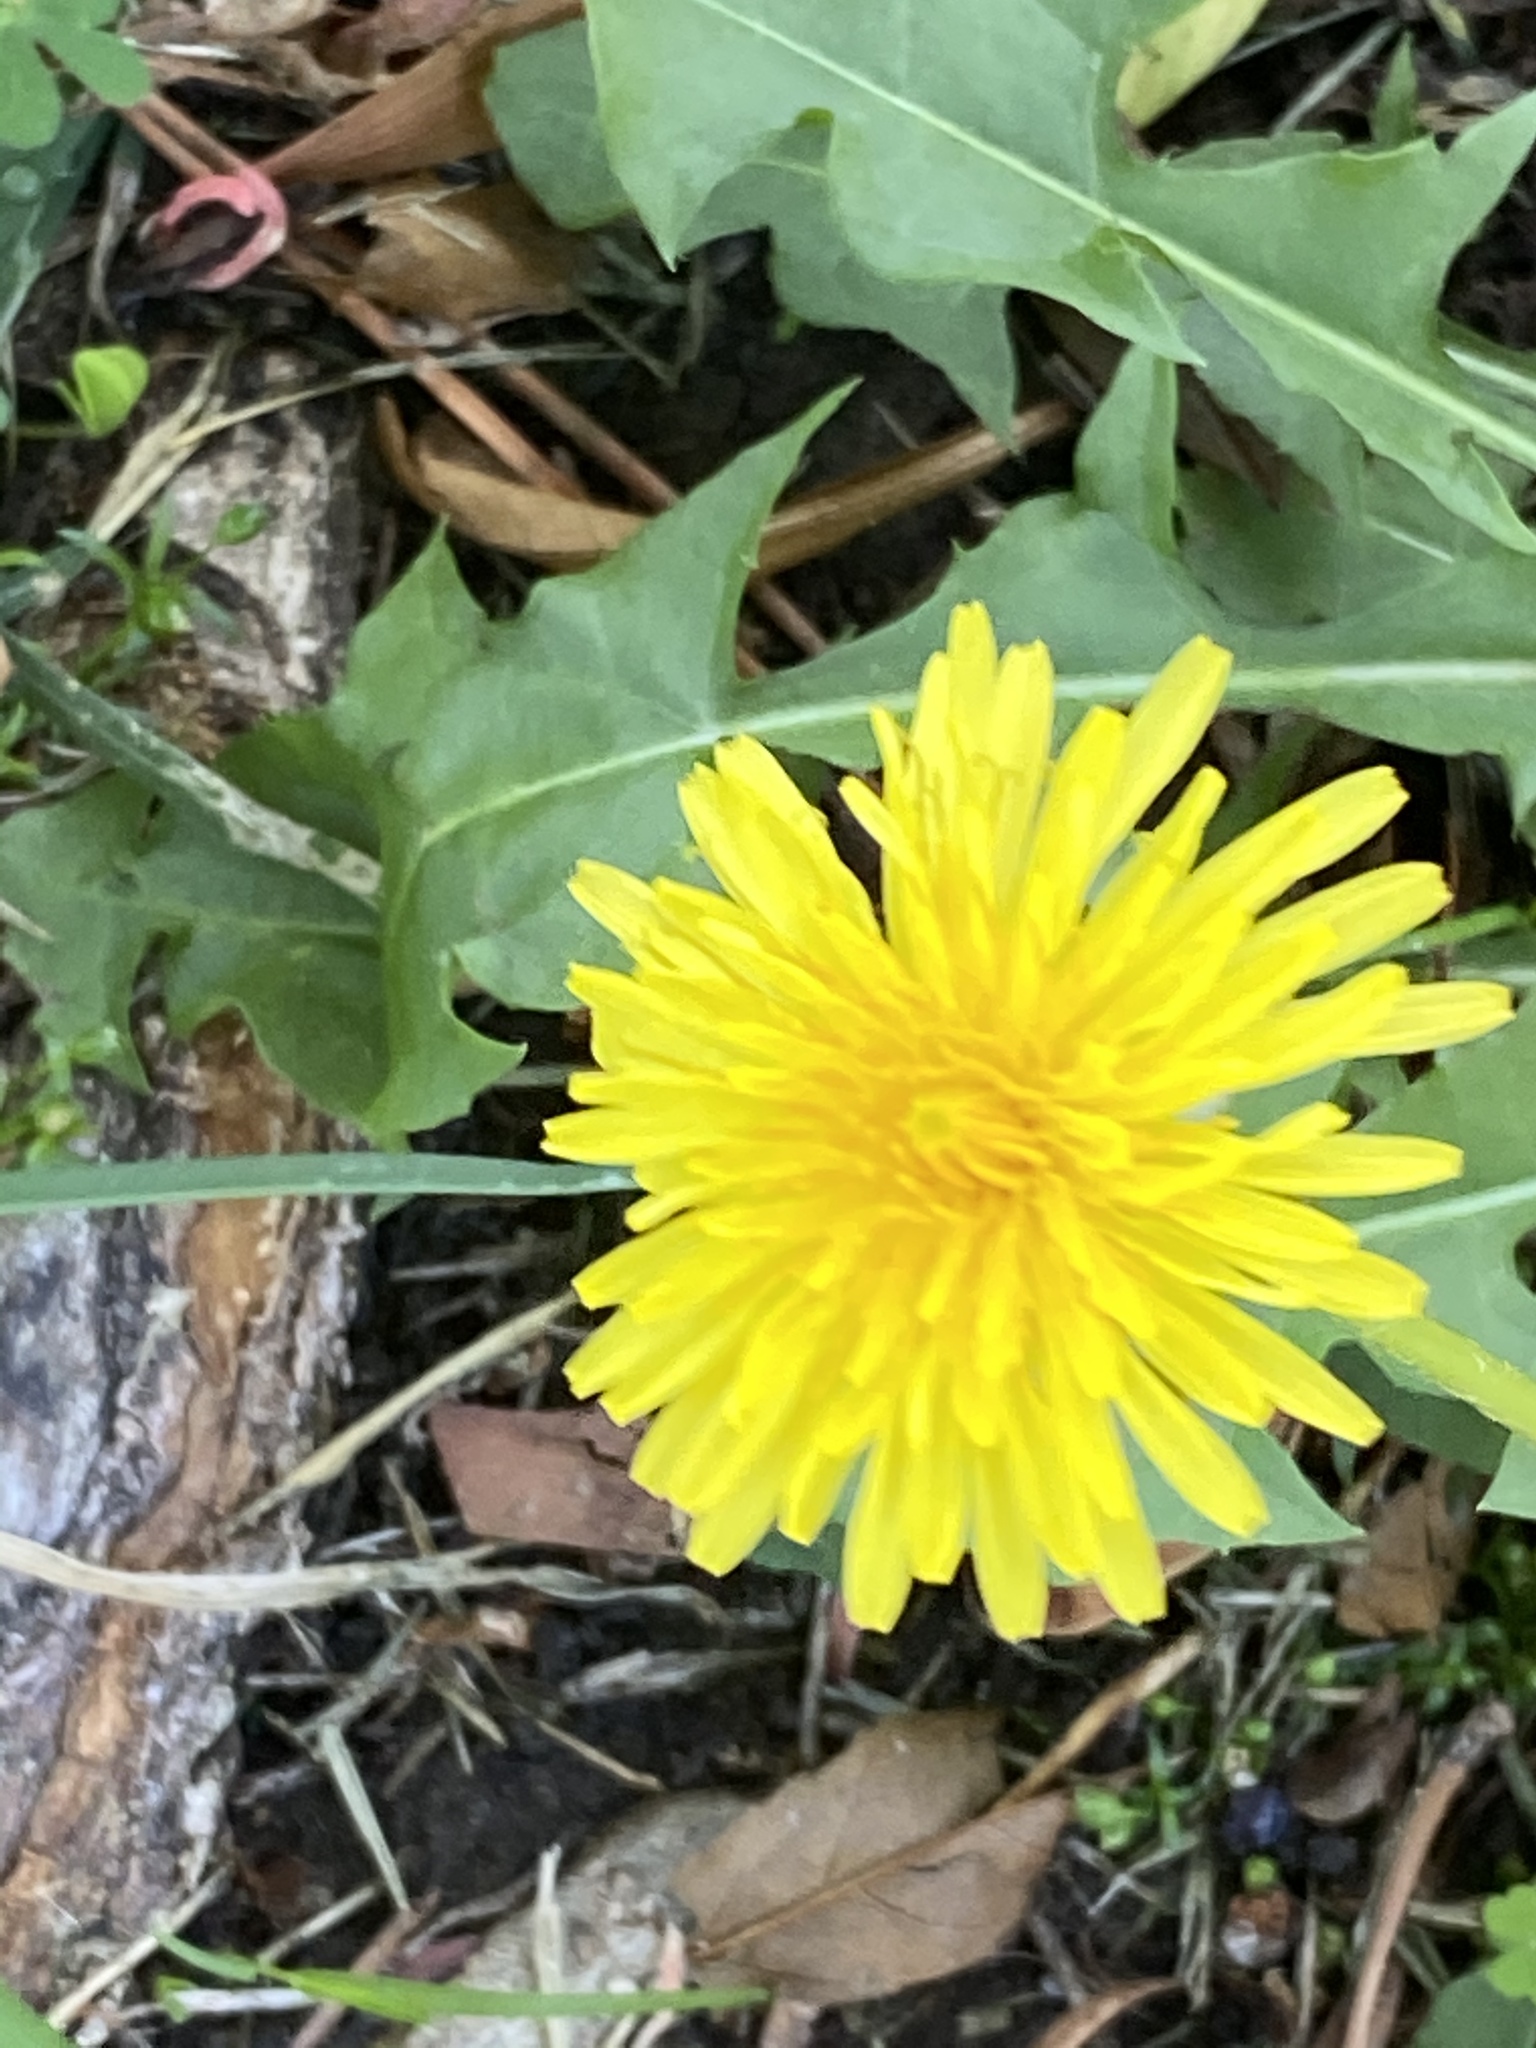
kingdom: Plantae
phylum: Tracheophyta
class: Magnoliopsida
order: Asterales
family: Asteraceae
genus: Taraxacum
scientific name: Taraxacum officinale
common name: Common dandelion
